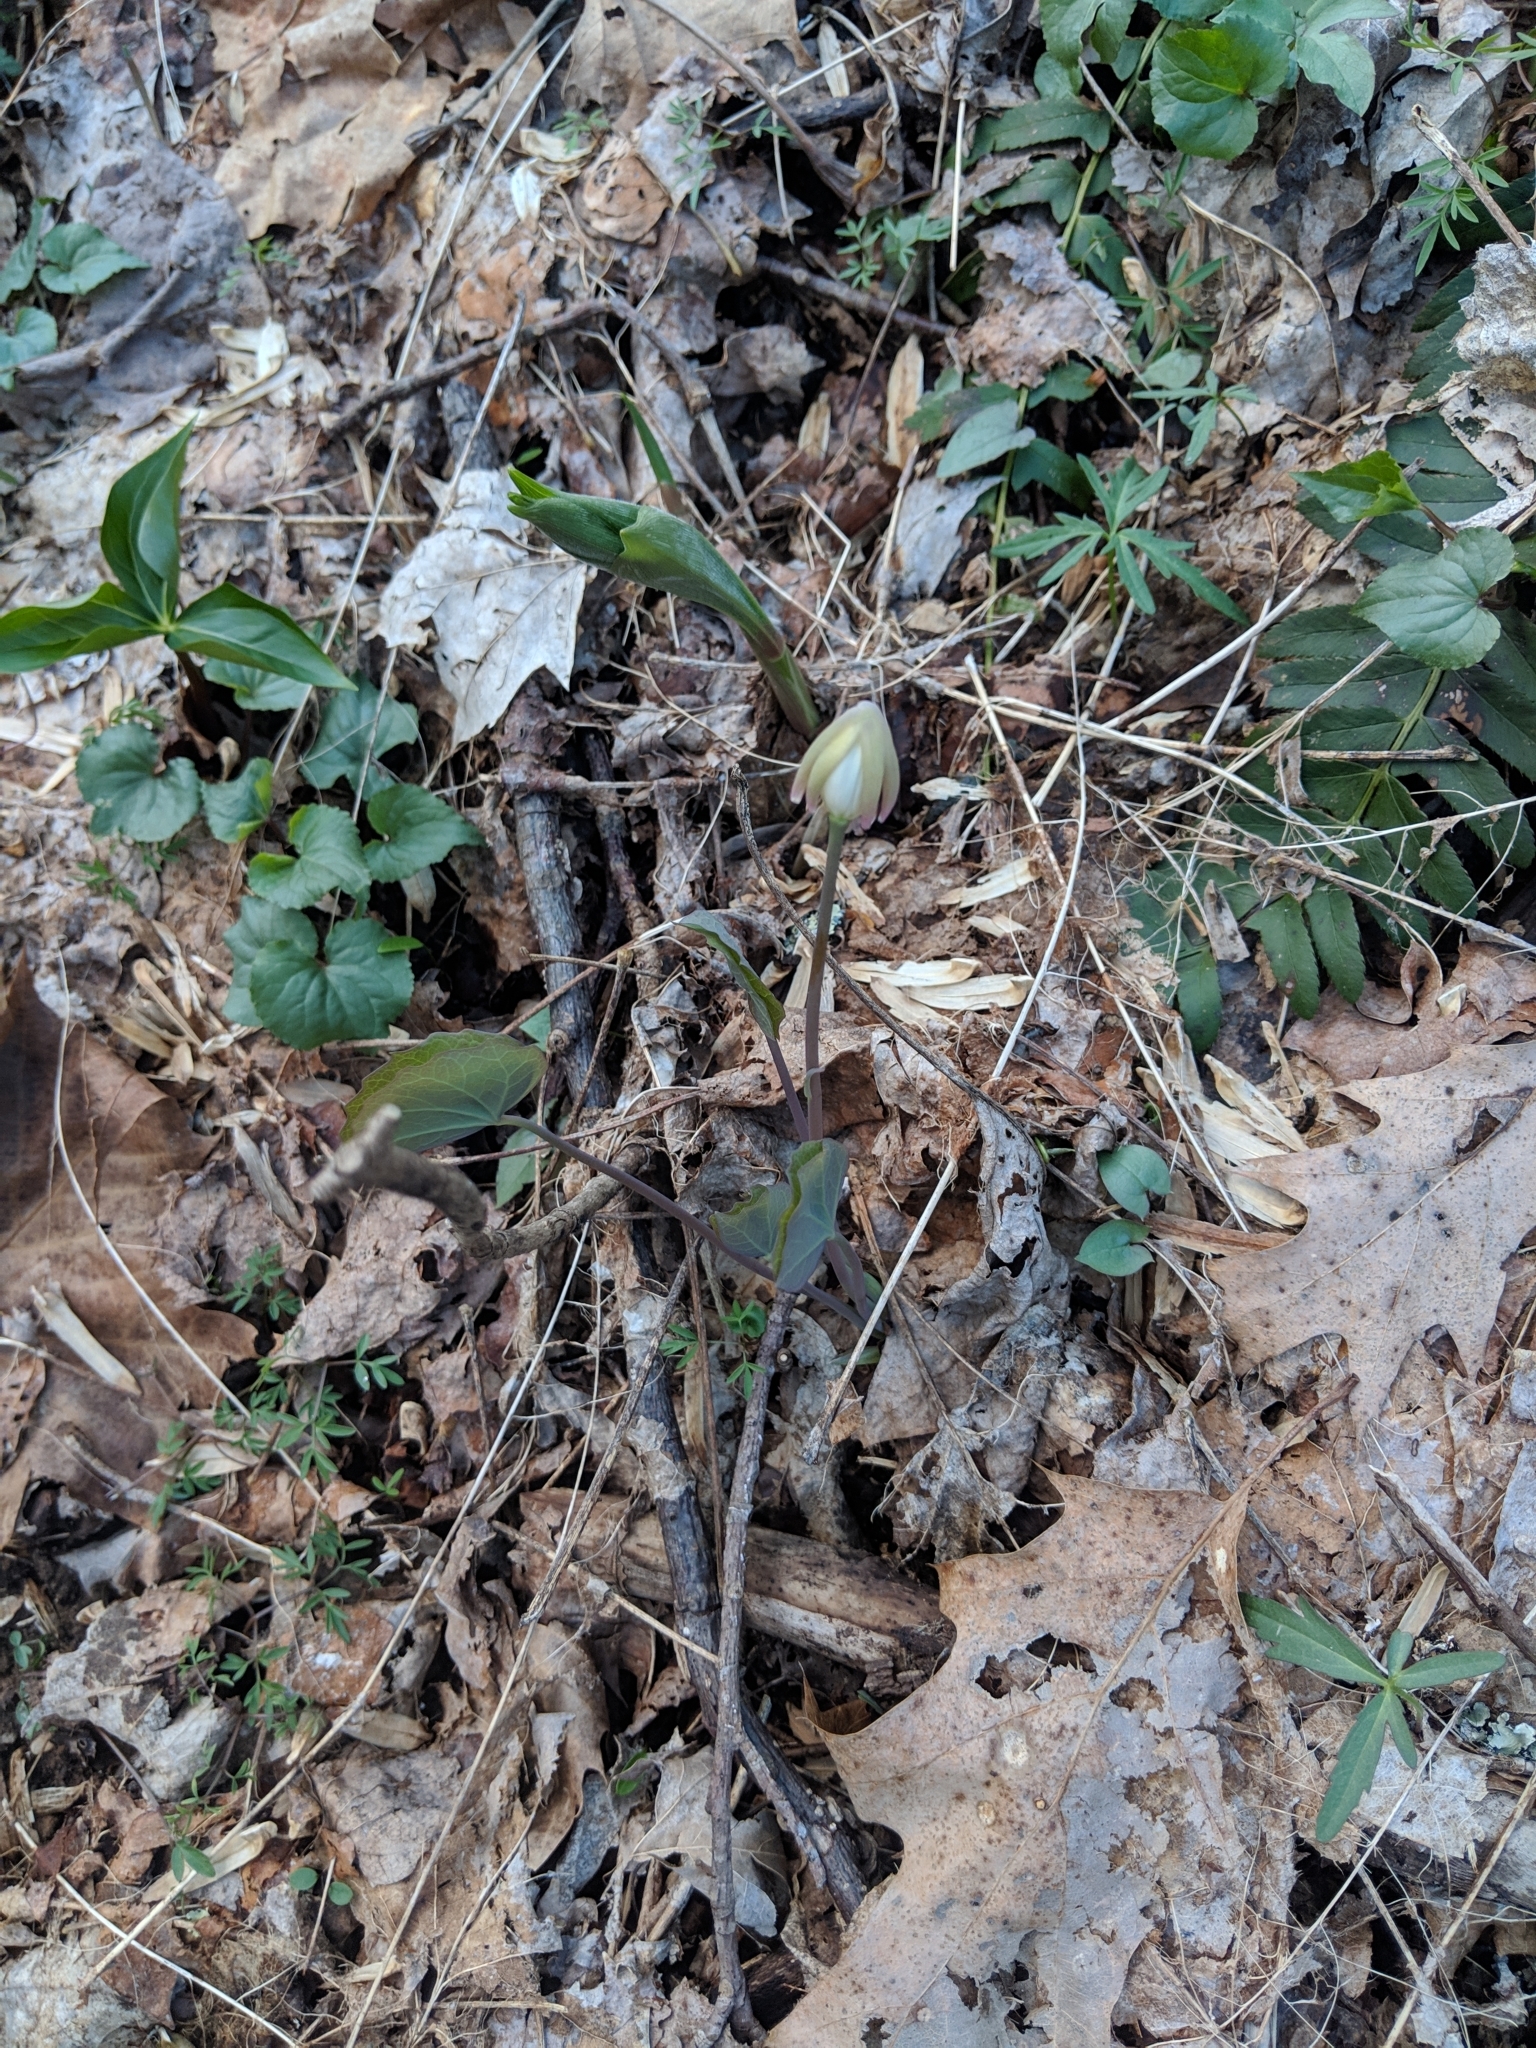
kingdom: Plantae
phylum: Tracheophyta
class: Magnoliopsida
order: Ranunculales
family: Berberidaceae
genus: Jeffersonia
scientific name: Jeffersonia diphylla
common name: Rheumatism-root
